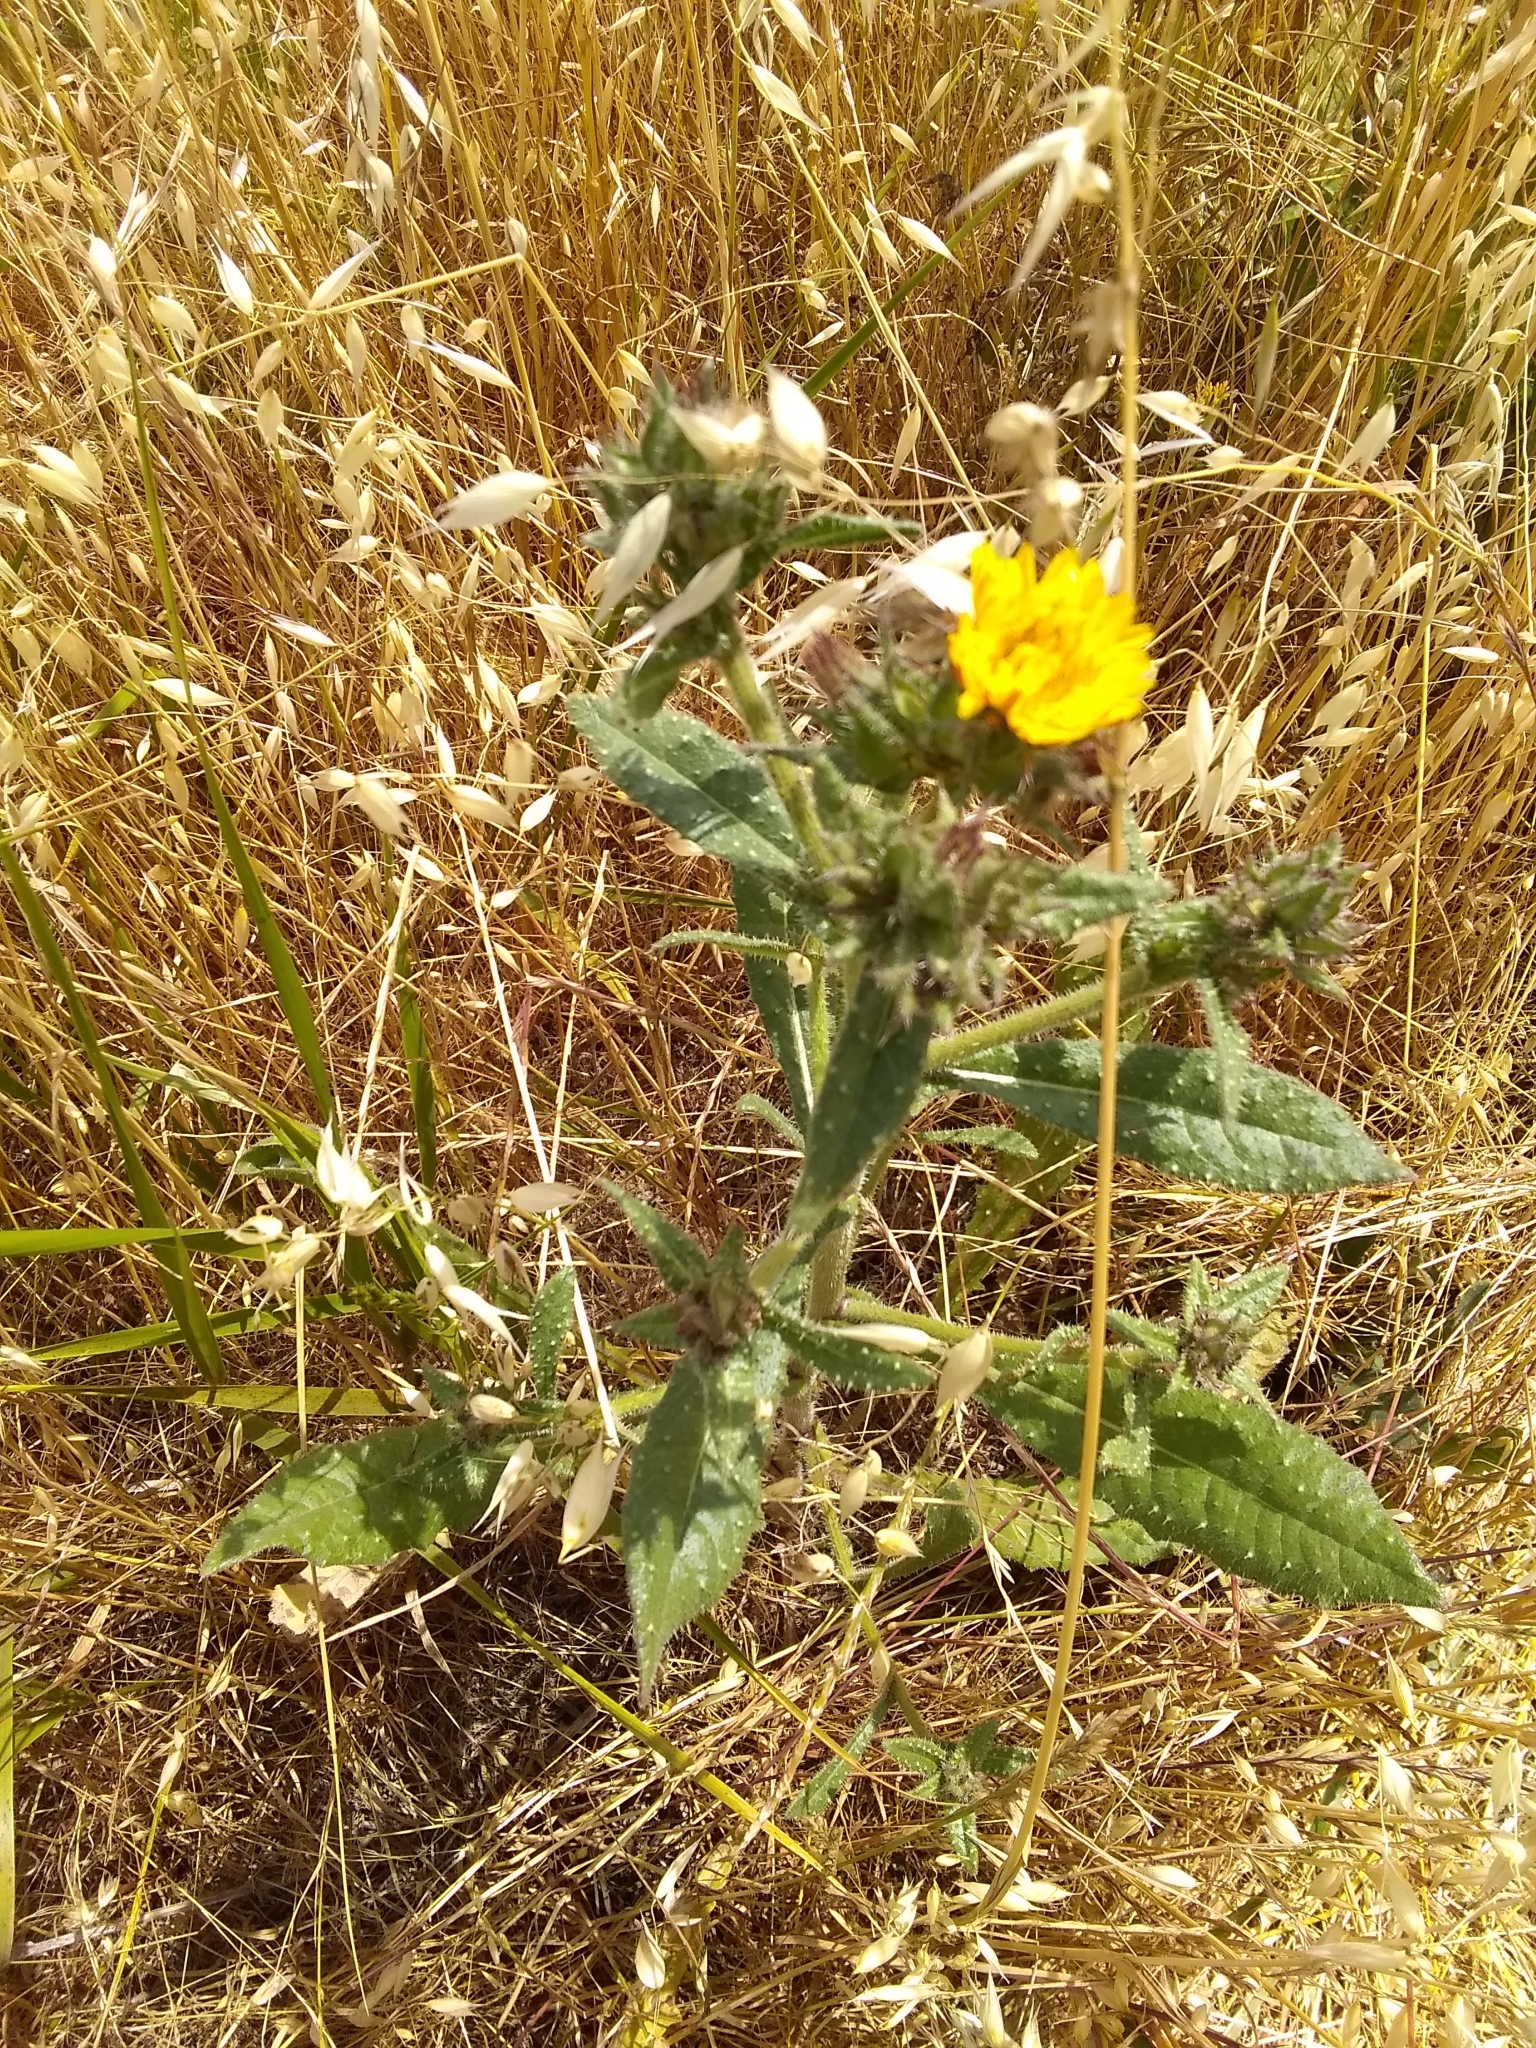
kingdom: Plantae
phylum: Tracheophyta
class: Magnoliopsida
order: Asterales
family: Asteraceae
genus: Helminthotheca
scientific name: Helminthotheca echioides
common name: Ox-tongue
